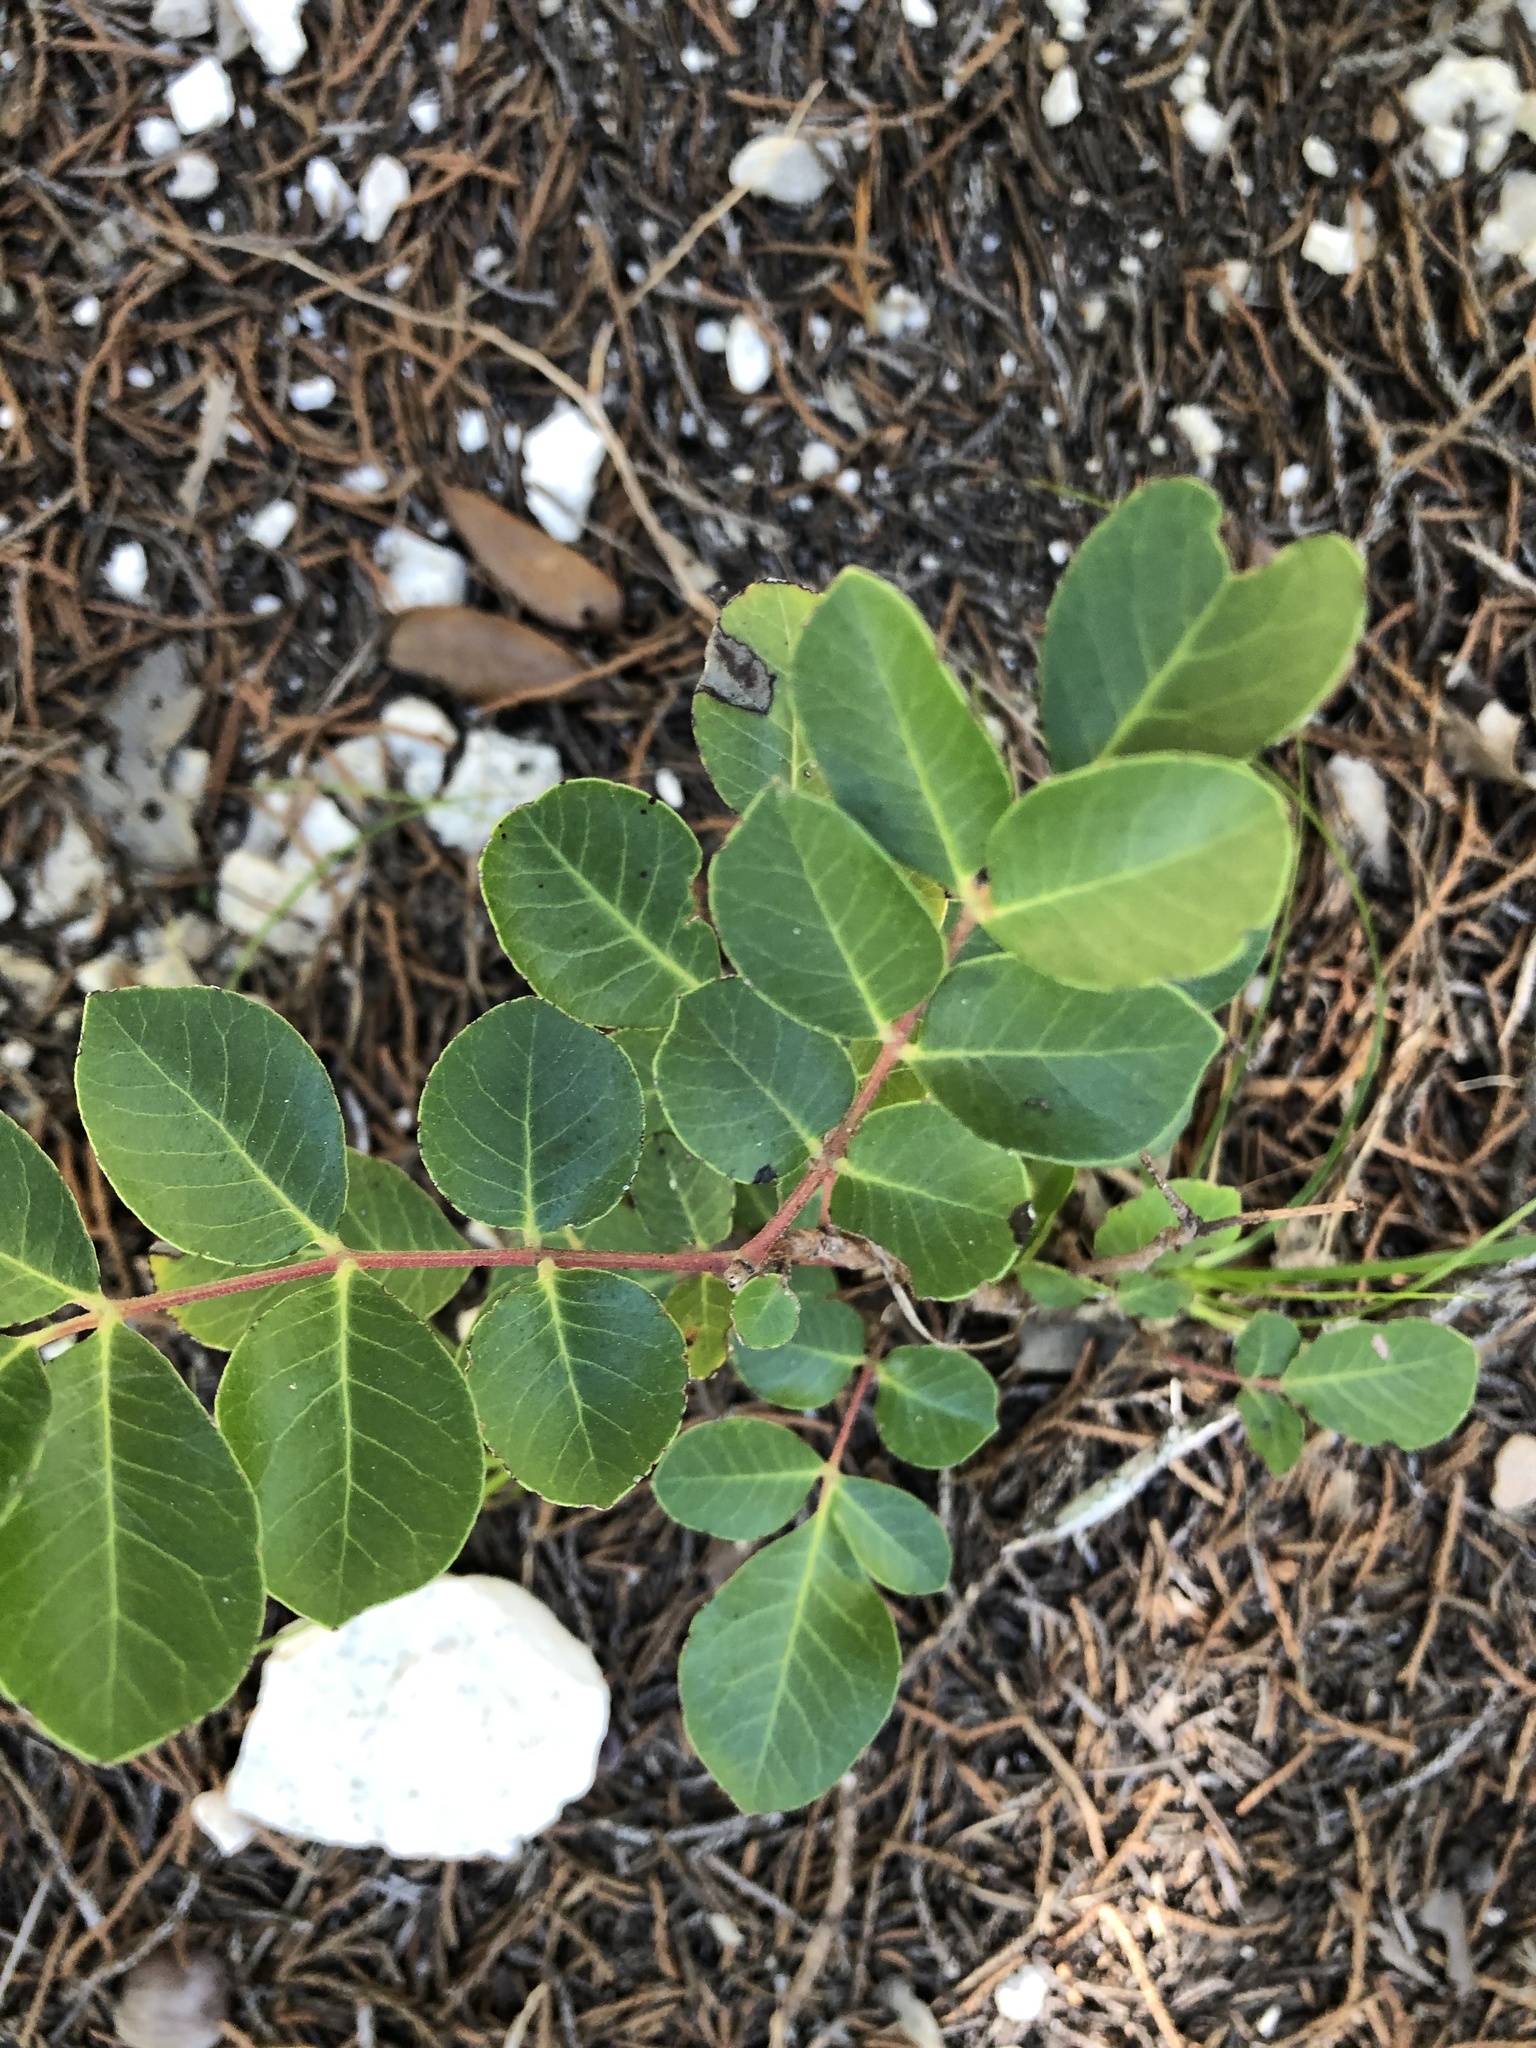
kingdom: Plantae
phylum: Tracheophyta
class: Magnoliopsida
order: Sapindales
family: Anacardiaceae
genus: Rhus
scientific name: Rhus virens
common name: Evergreen sumac
